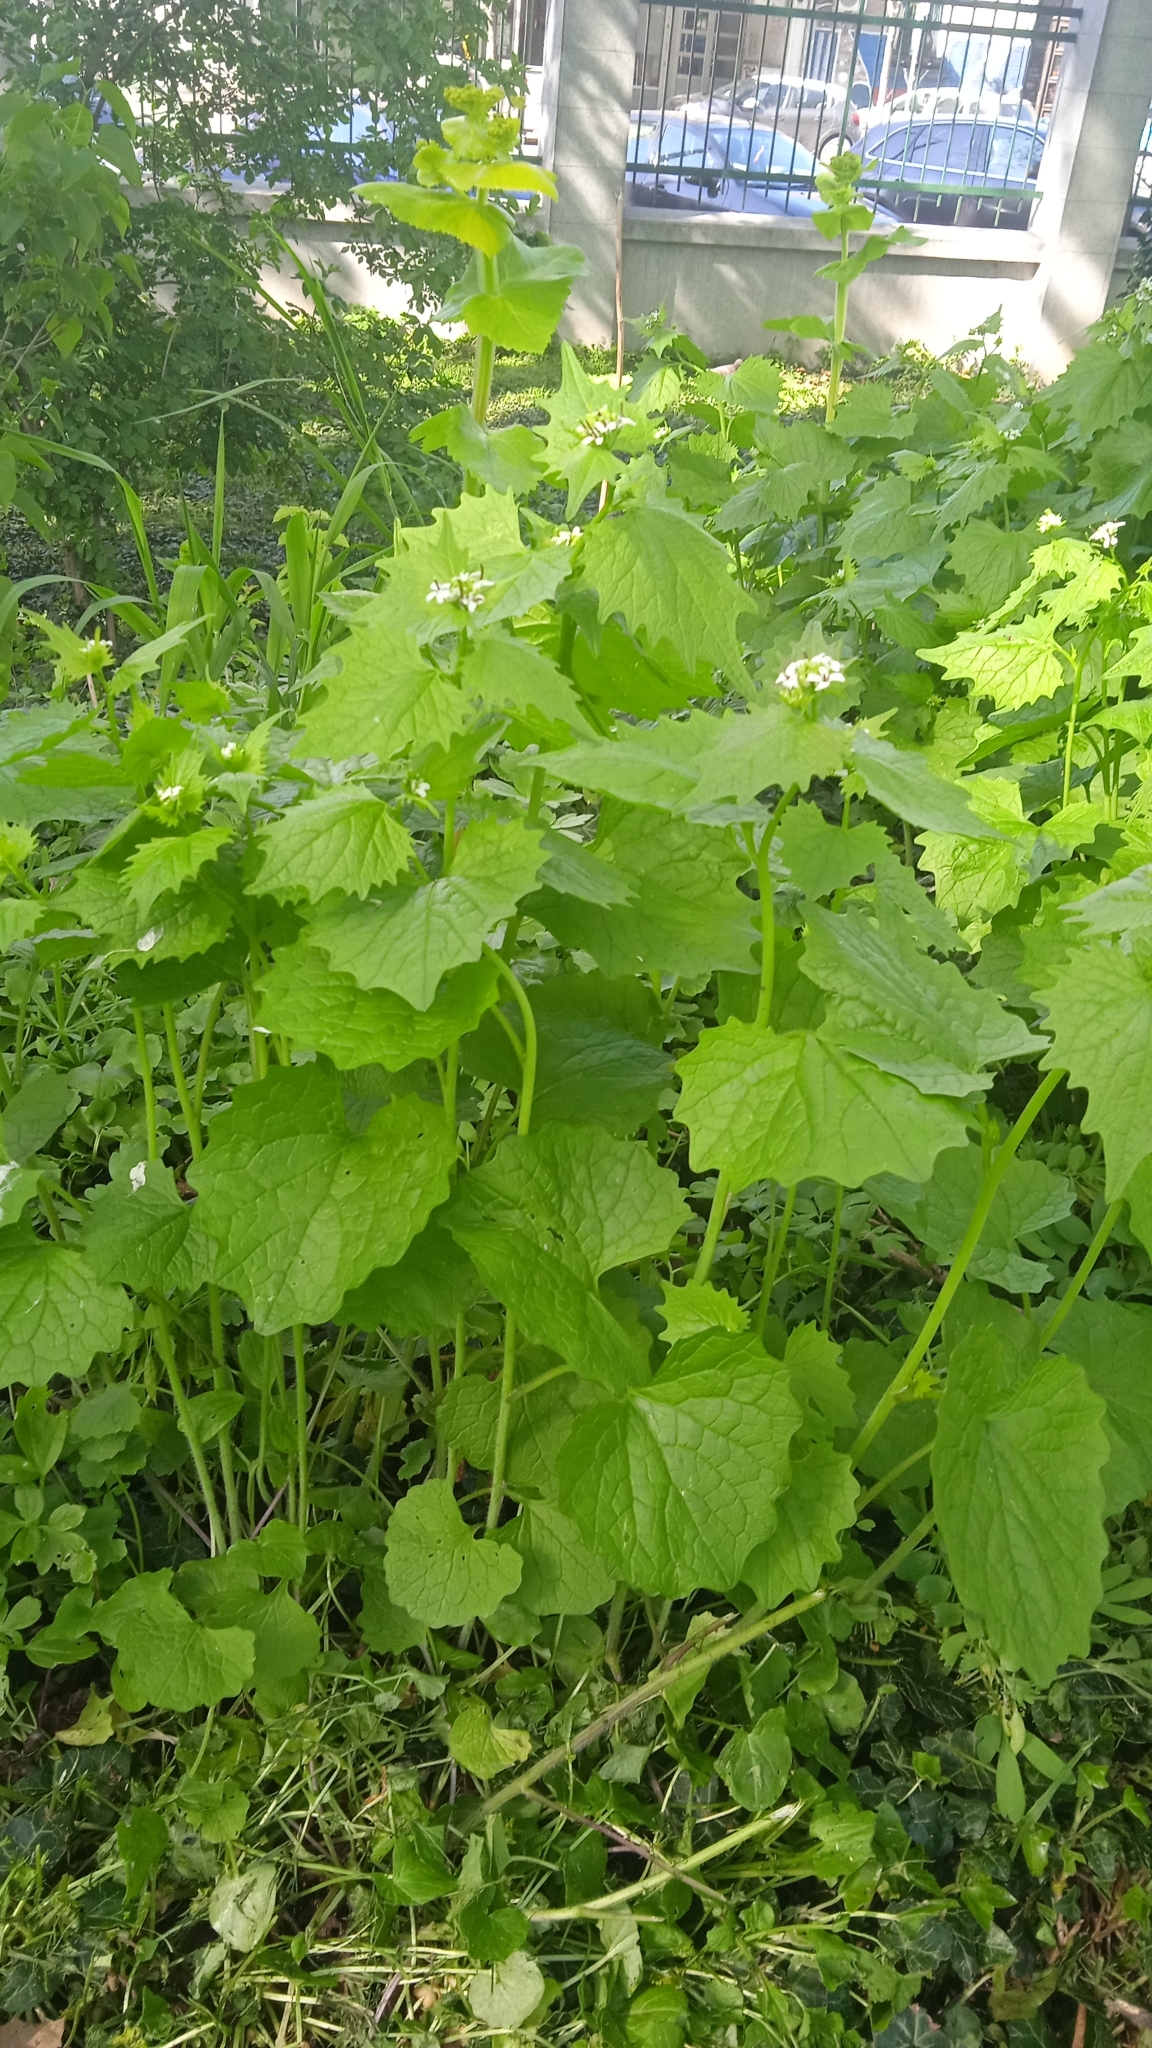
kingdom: Plantae
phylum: Tracheophyta
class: Magnoliopsida
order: Brassicales
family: Brassicaceae
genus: Alliaria
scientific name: Alliaria petiolata
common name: Garlic mustard
